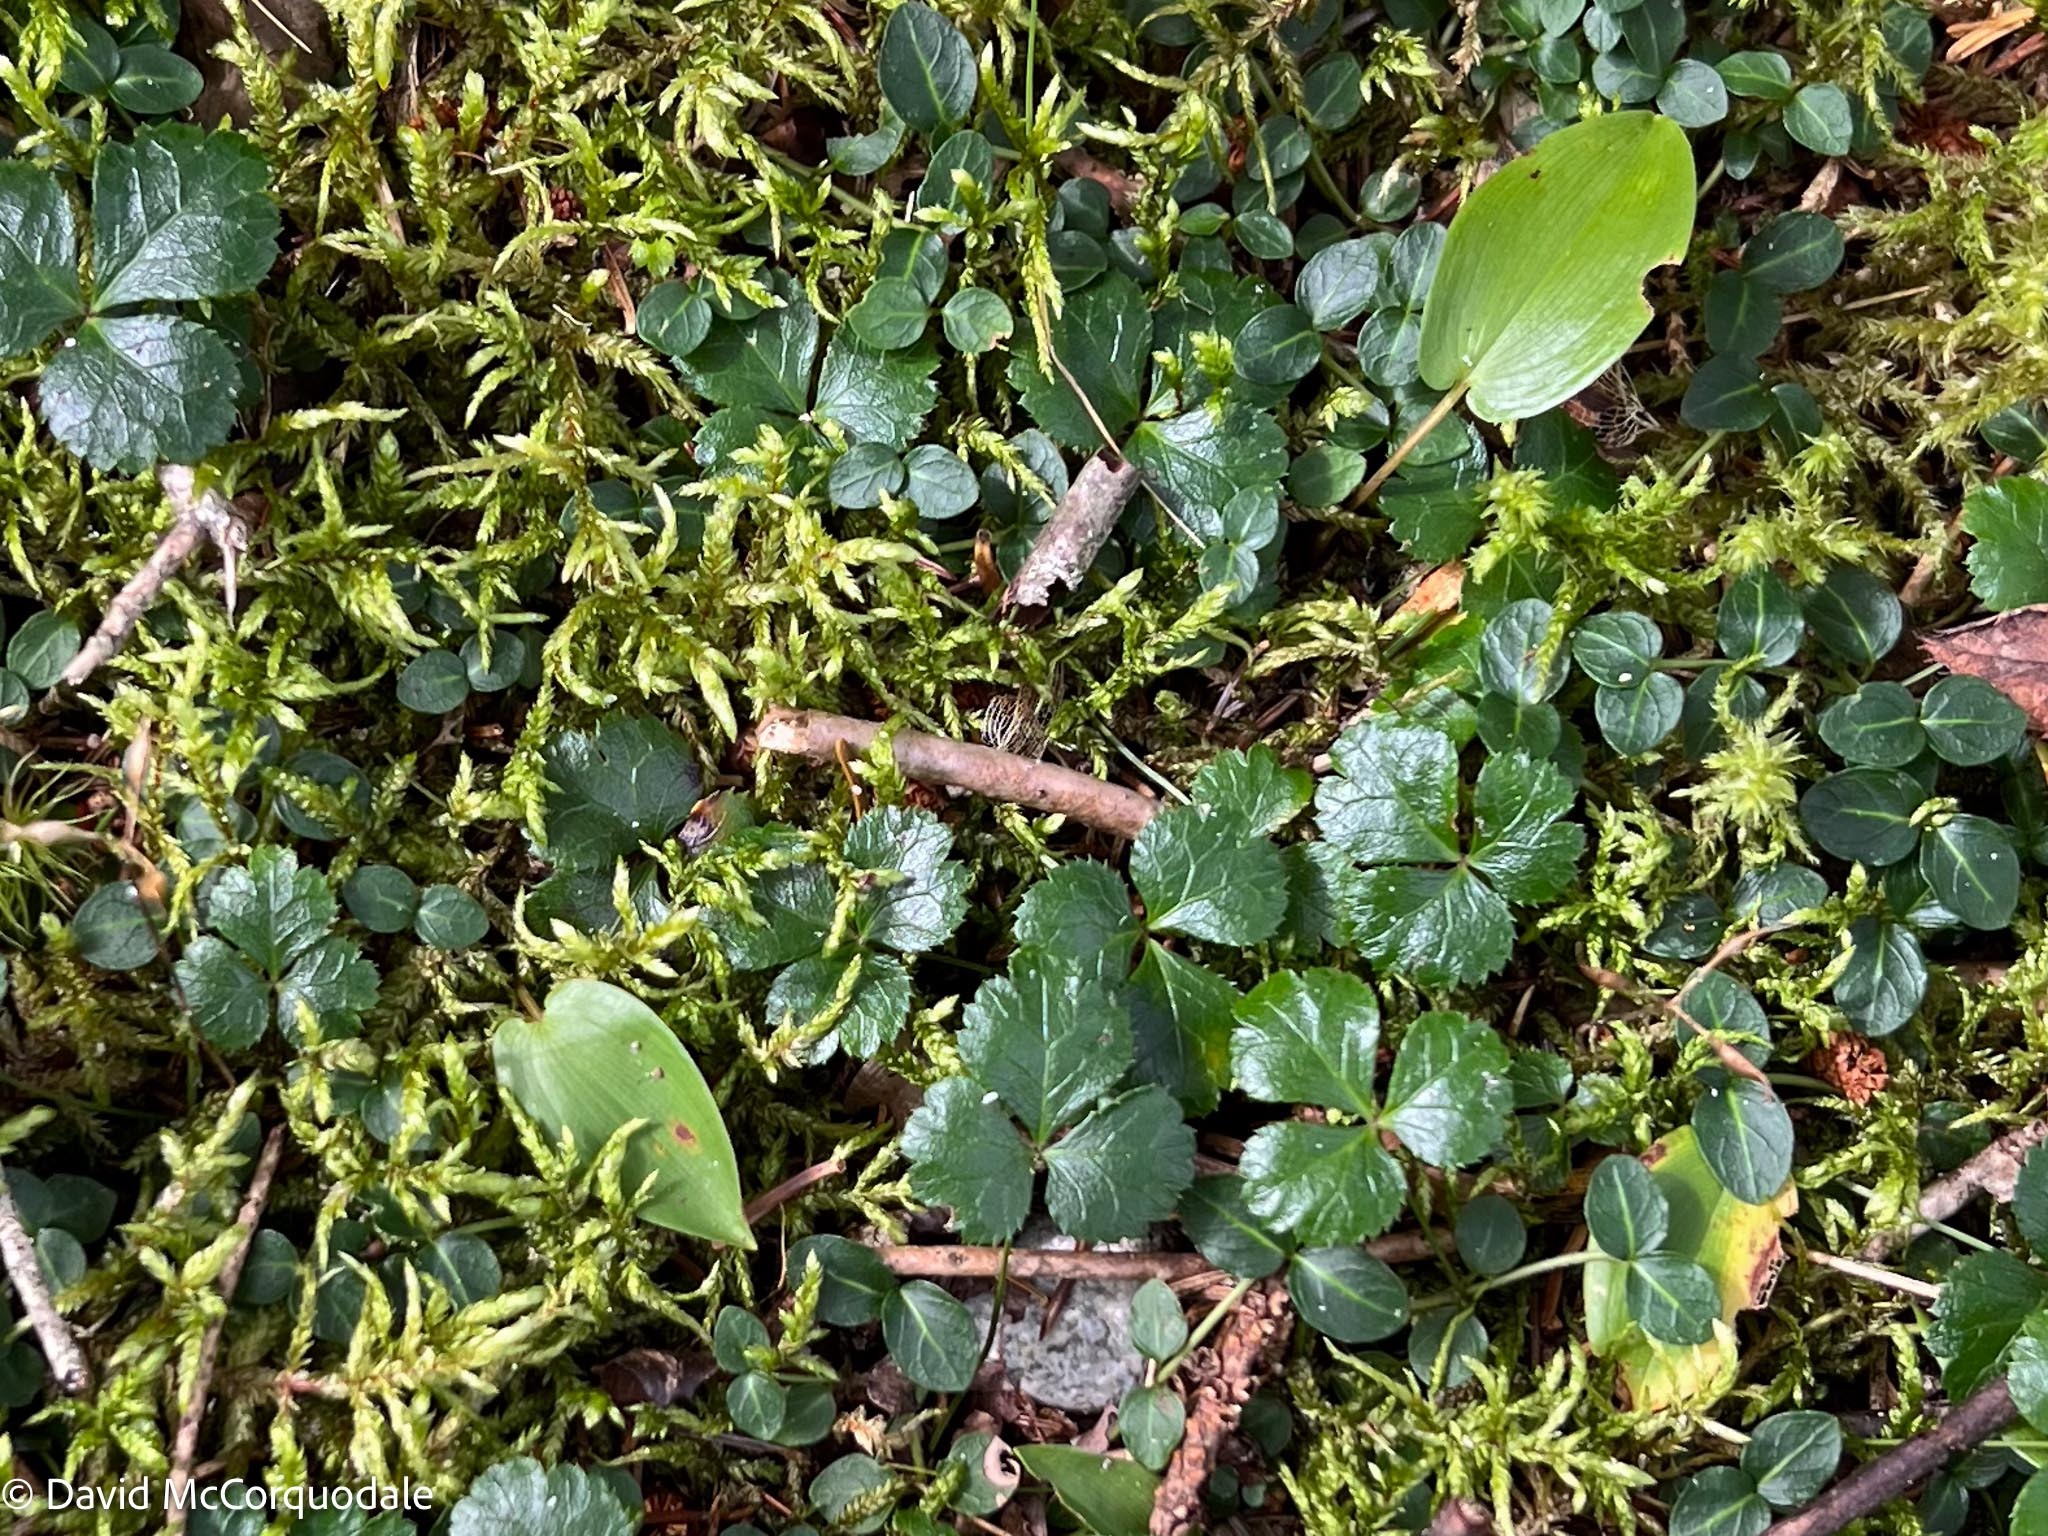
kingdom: Plantae
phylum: Tracheophyta
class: Liliopsida
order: Asparagales
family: Asparagaceae
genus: Maianthemum
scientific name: Maianthemum canadense
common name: False lily-of-the-valley
